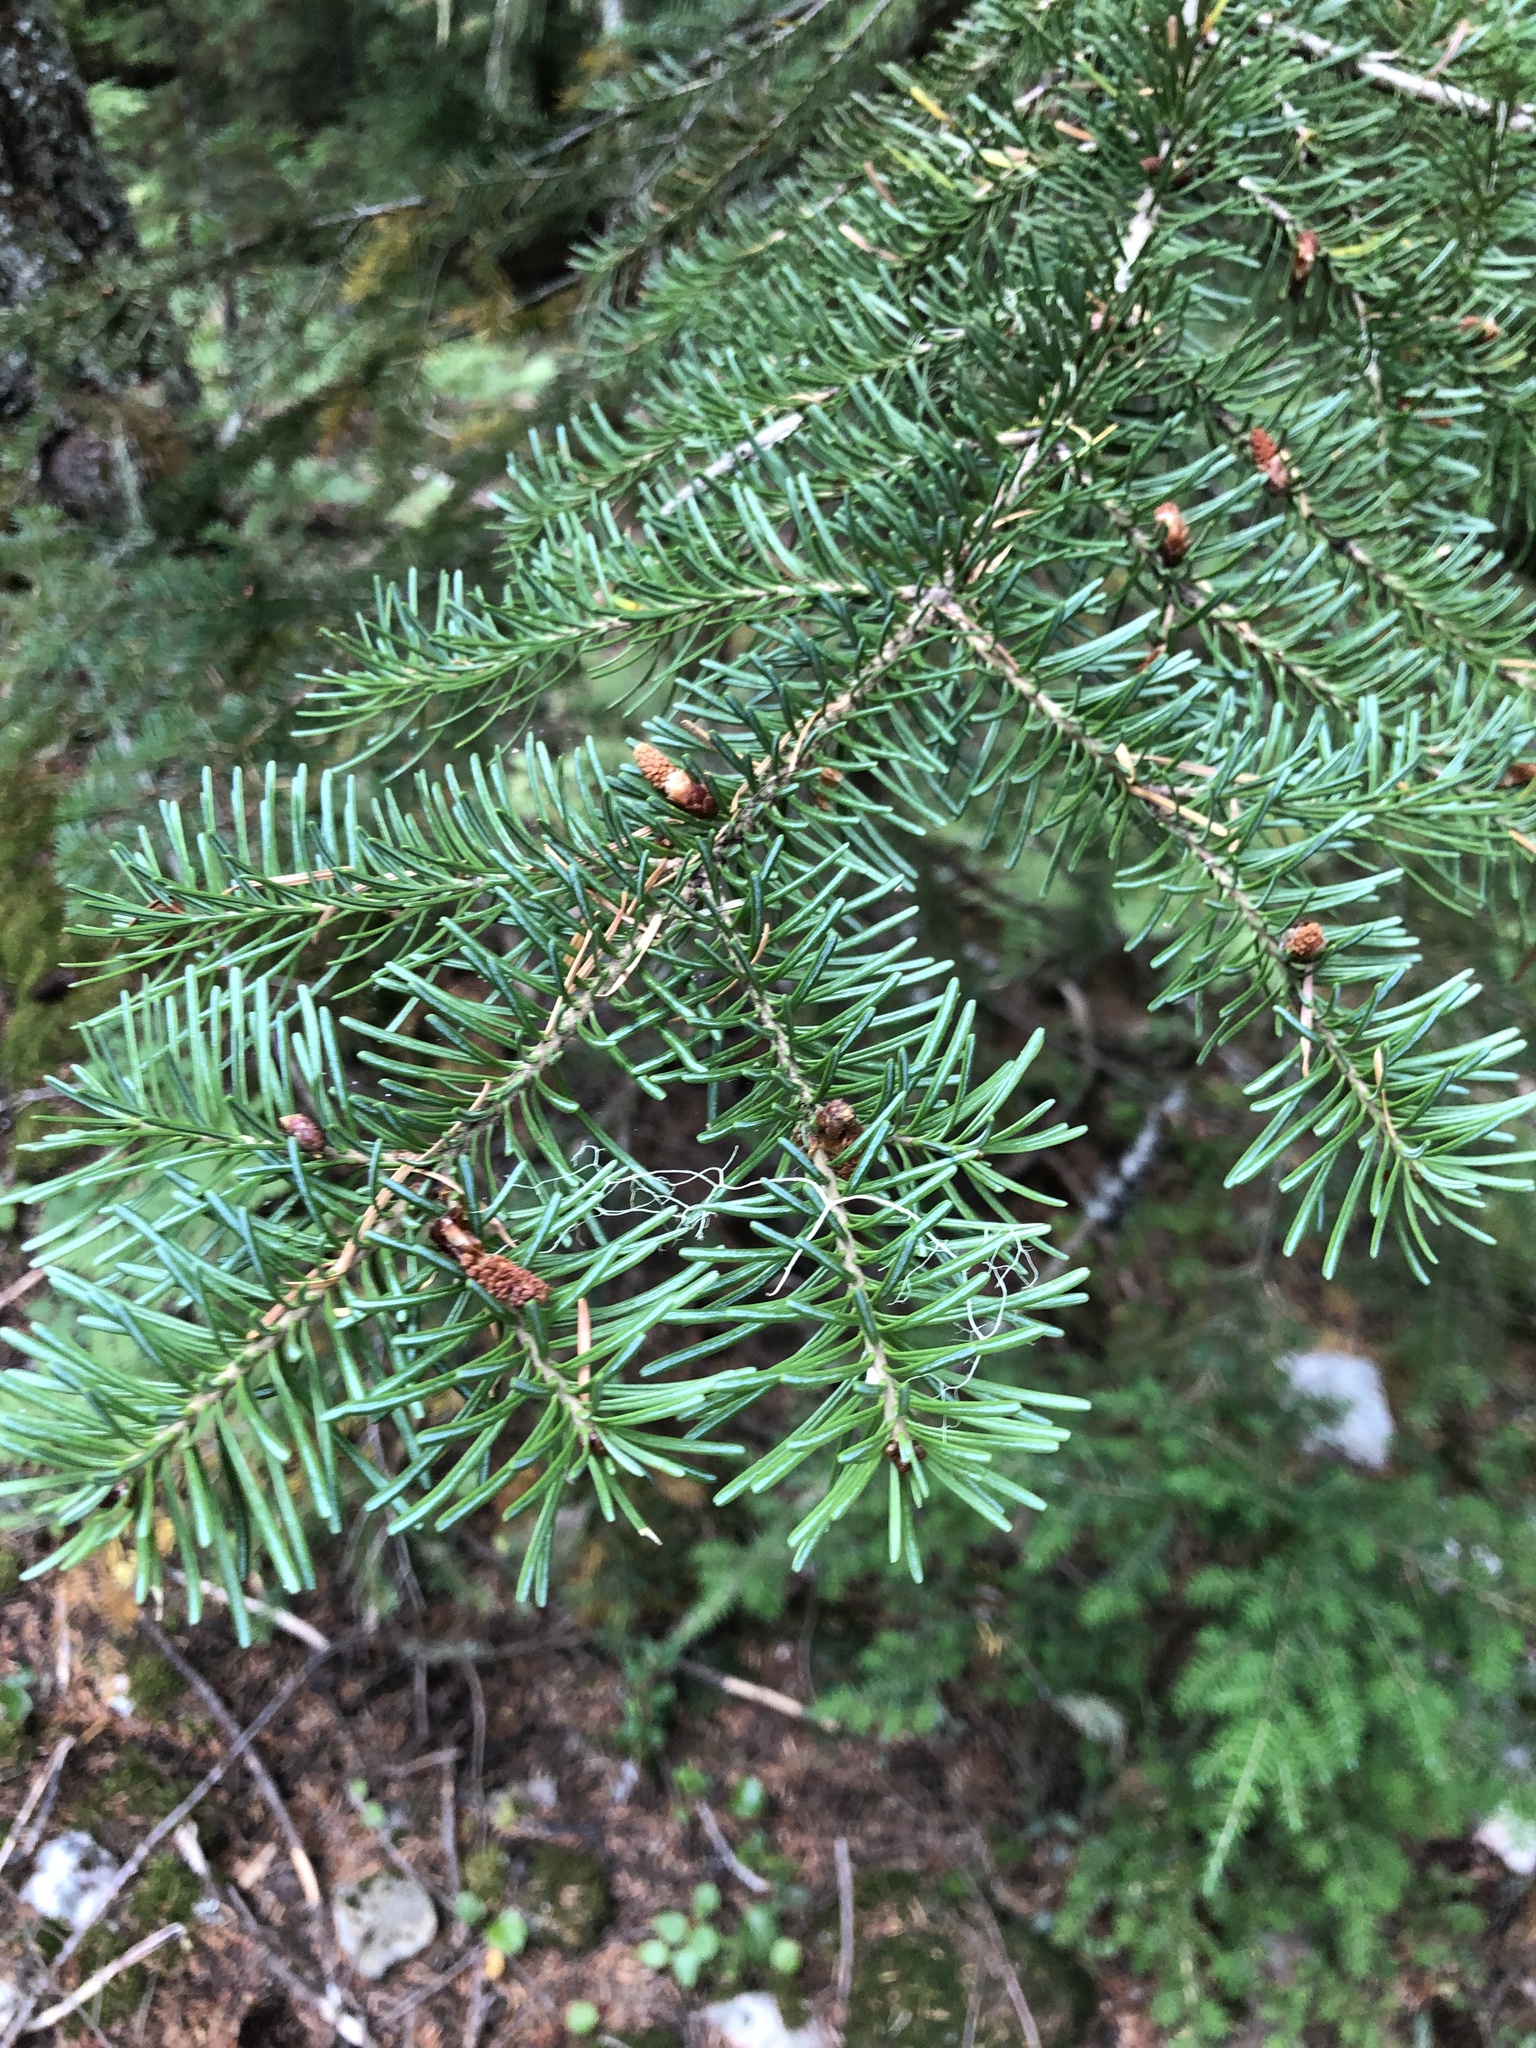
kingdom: Plantae
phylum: Tracheophyta
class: Pinopsida
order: Pinales
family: Pinaceae
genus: Abies
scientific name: Abies lasiocarpa
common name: Subalpine fir
